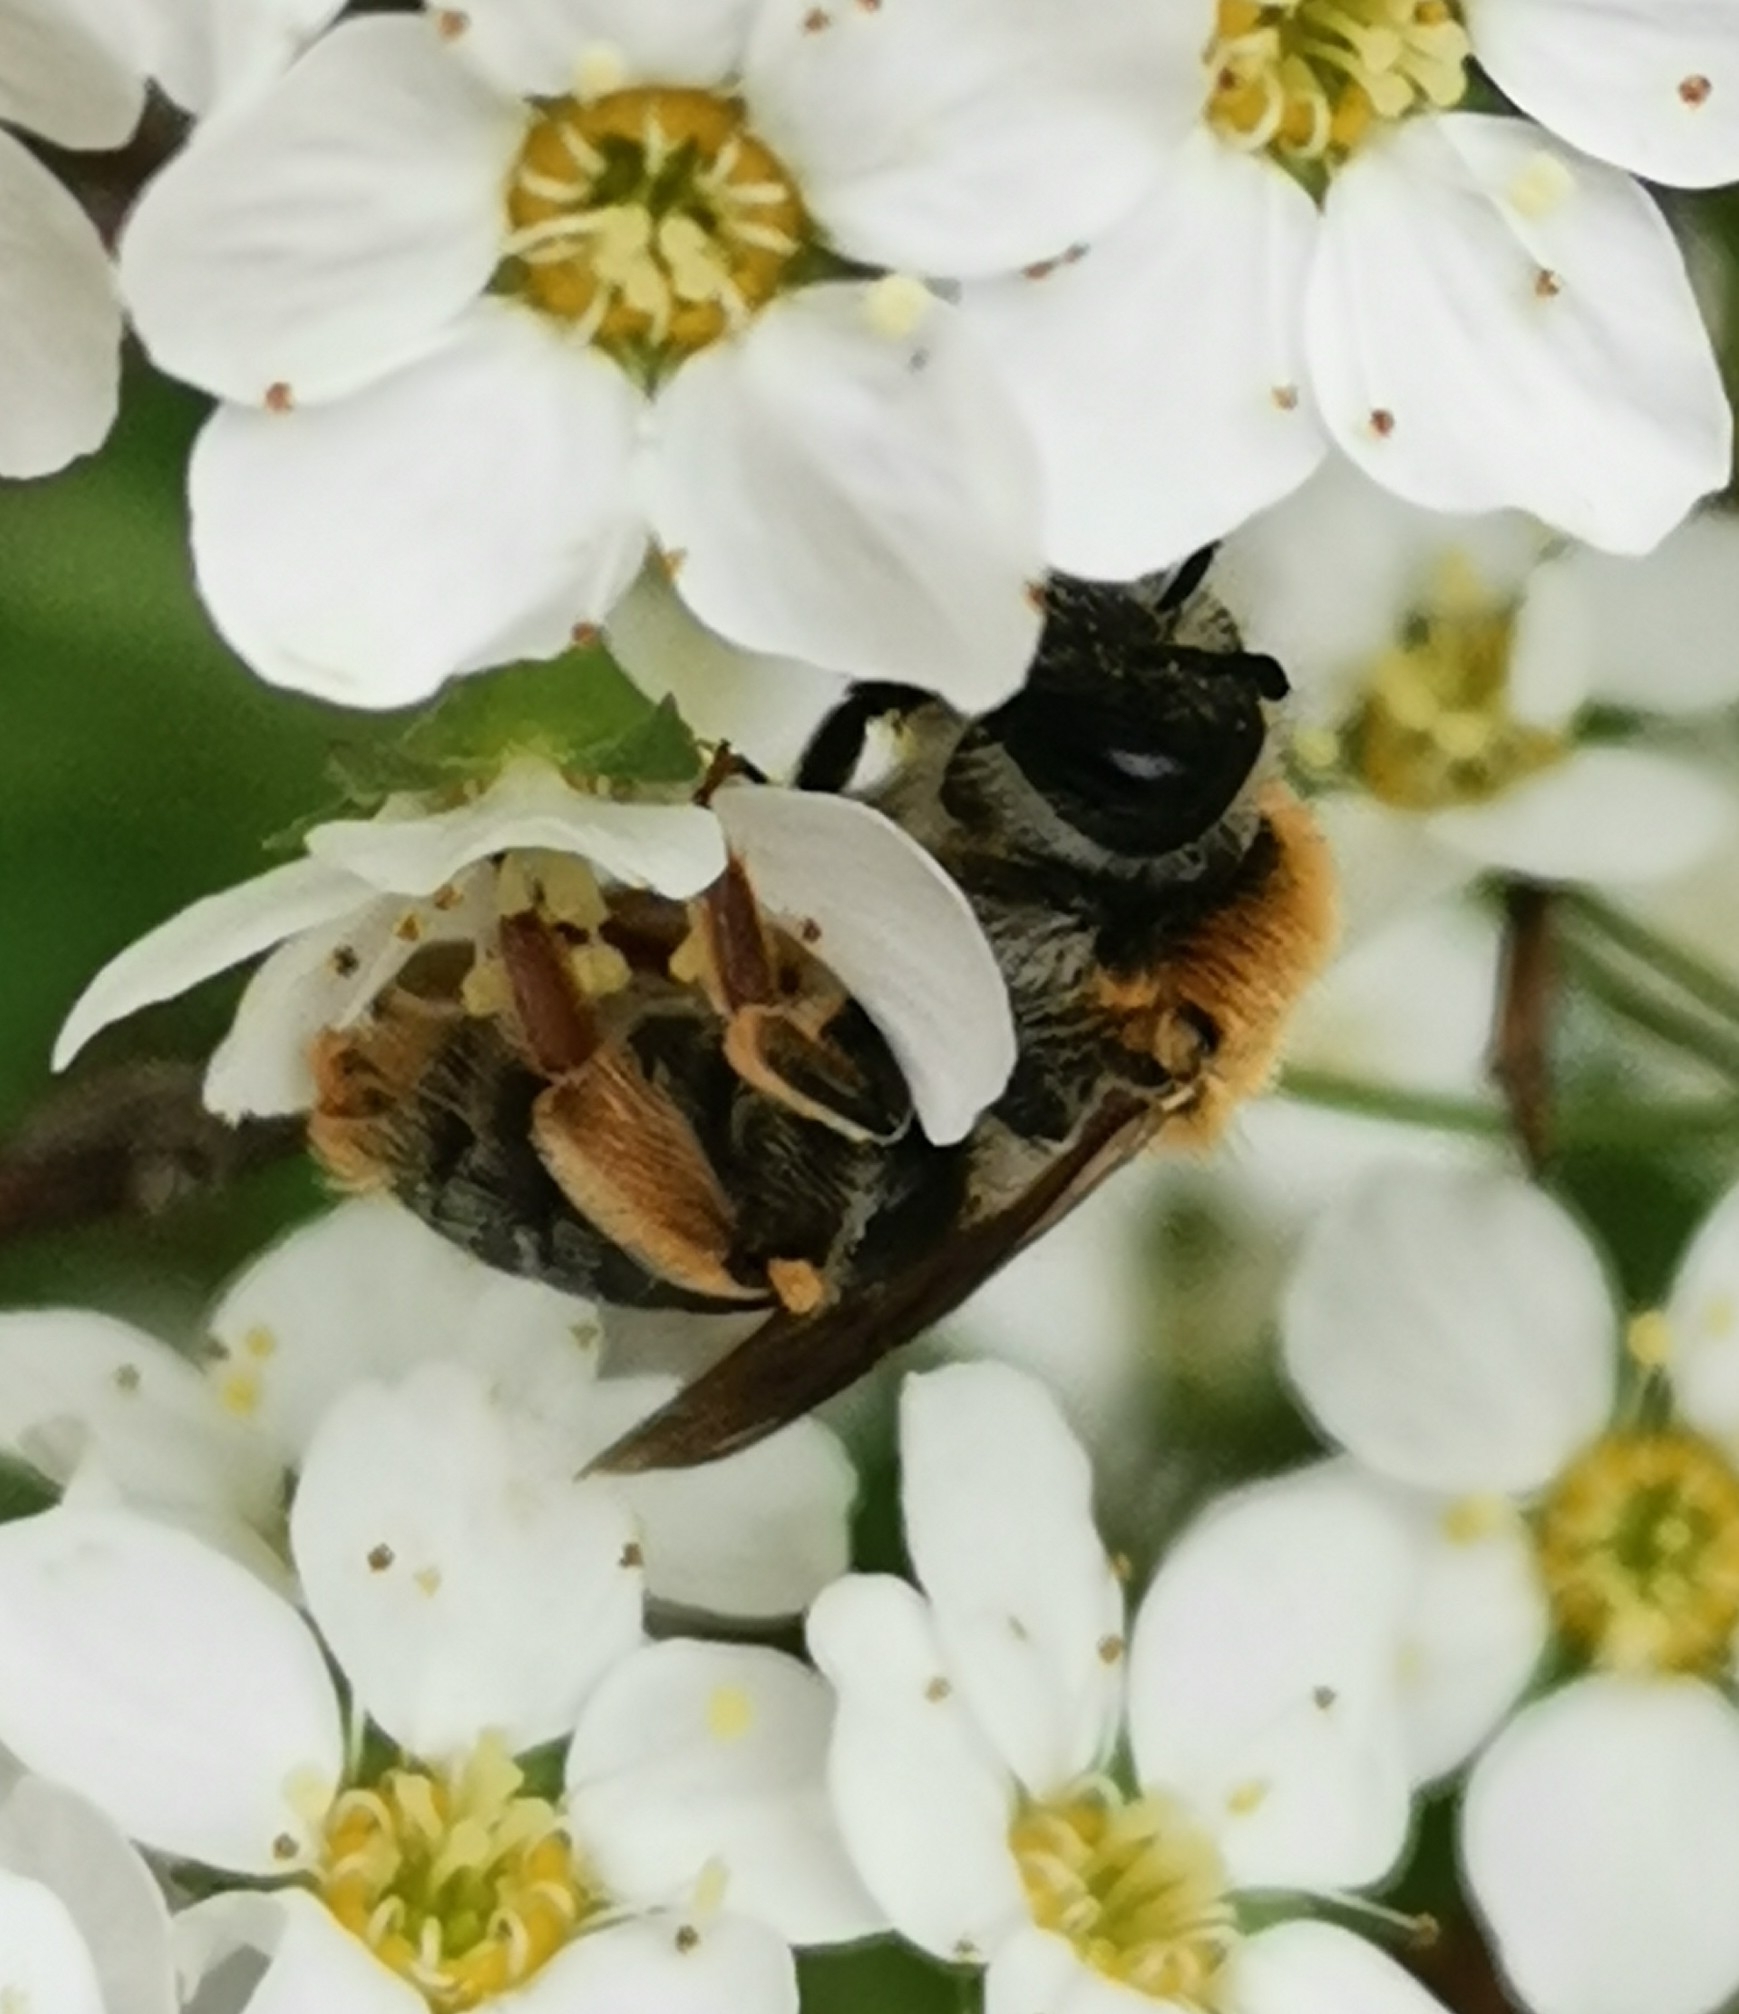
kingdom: Animalia
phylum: Arthropoda
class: Insecta
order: Hymenoptera
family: Andrenidae
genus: Andrena
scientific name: Andrena haemorrhoa
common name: Early mining bee
